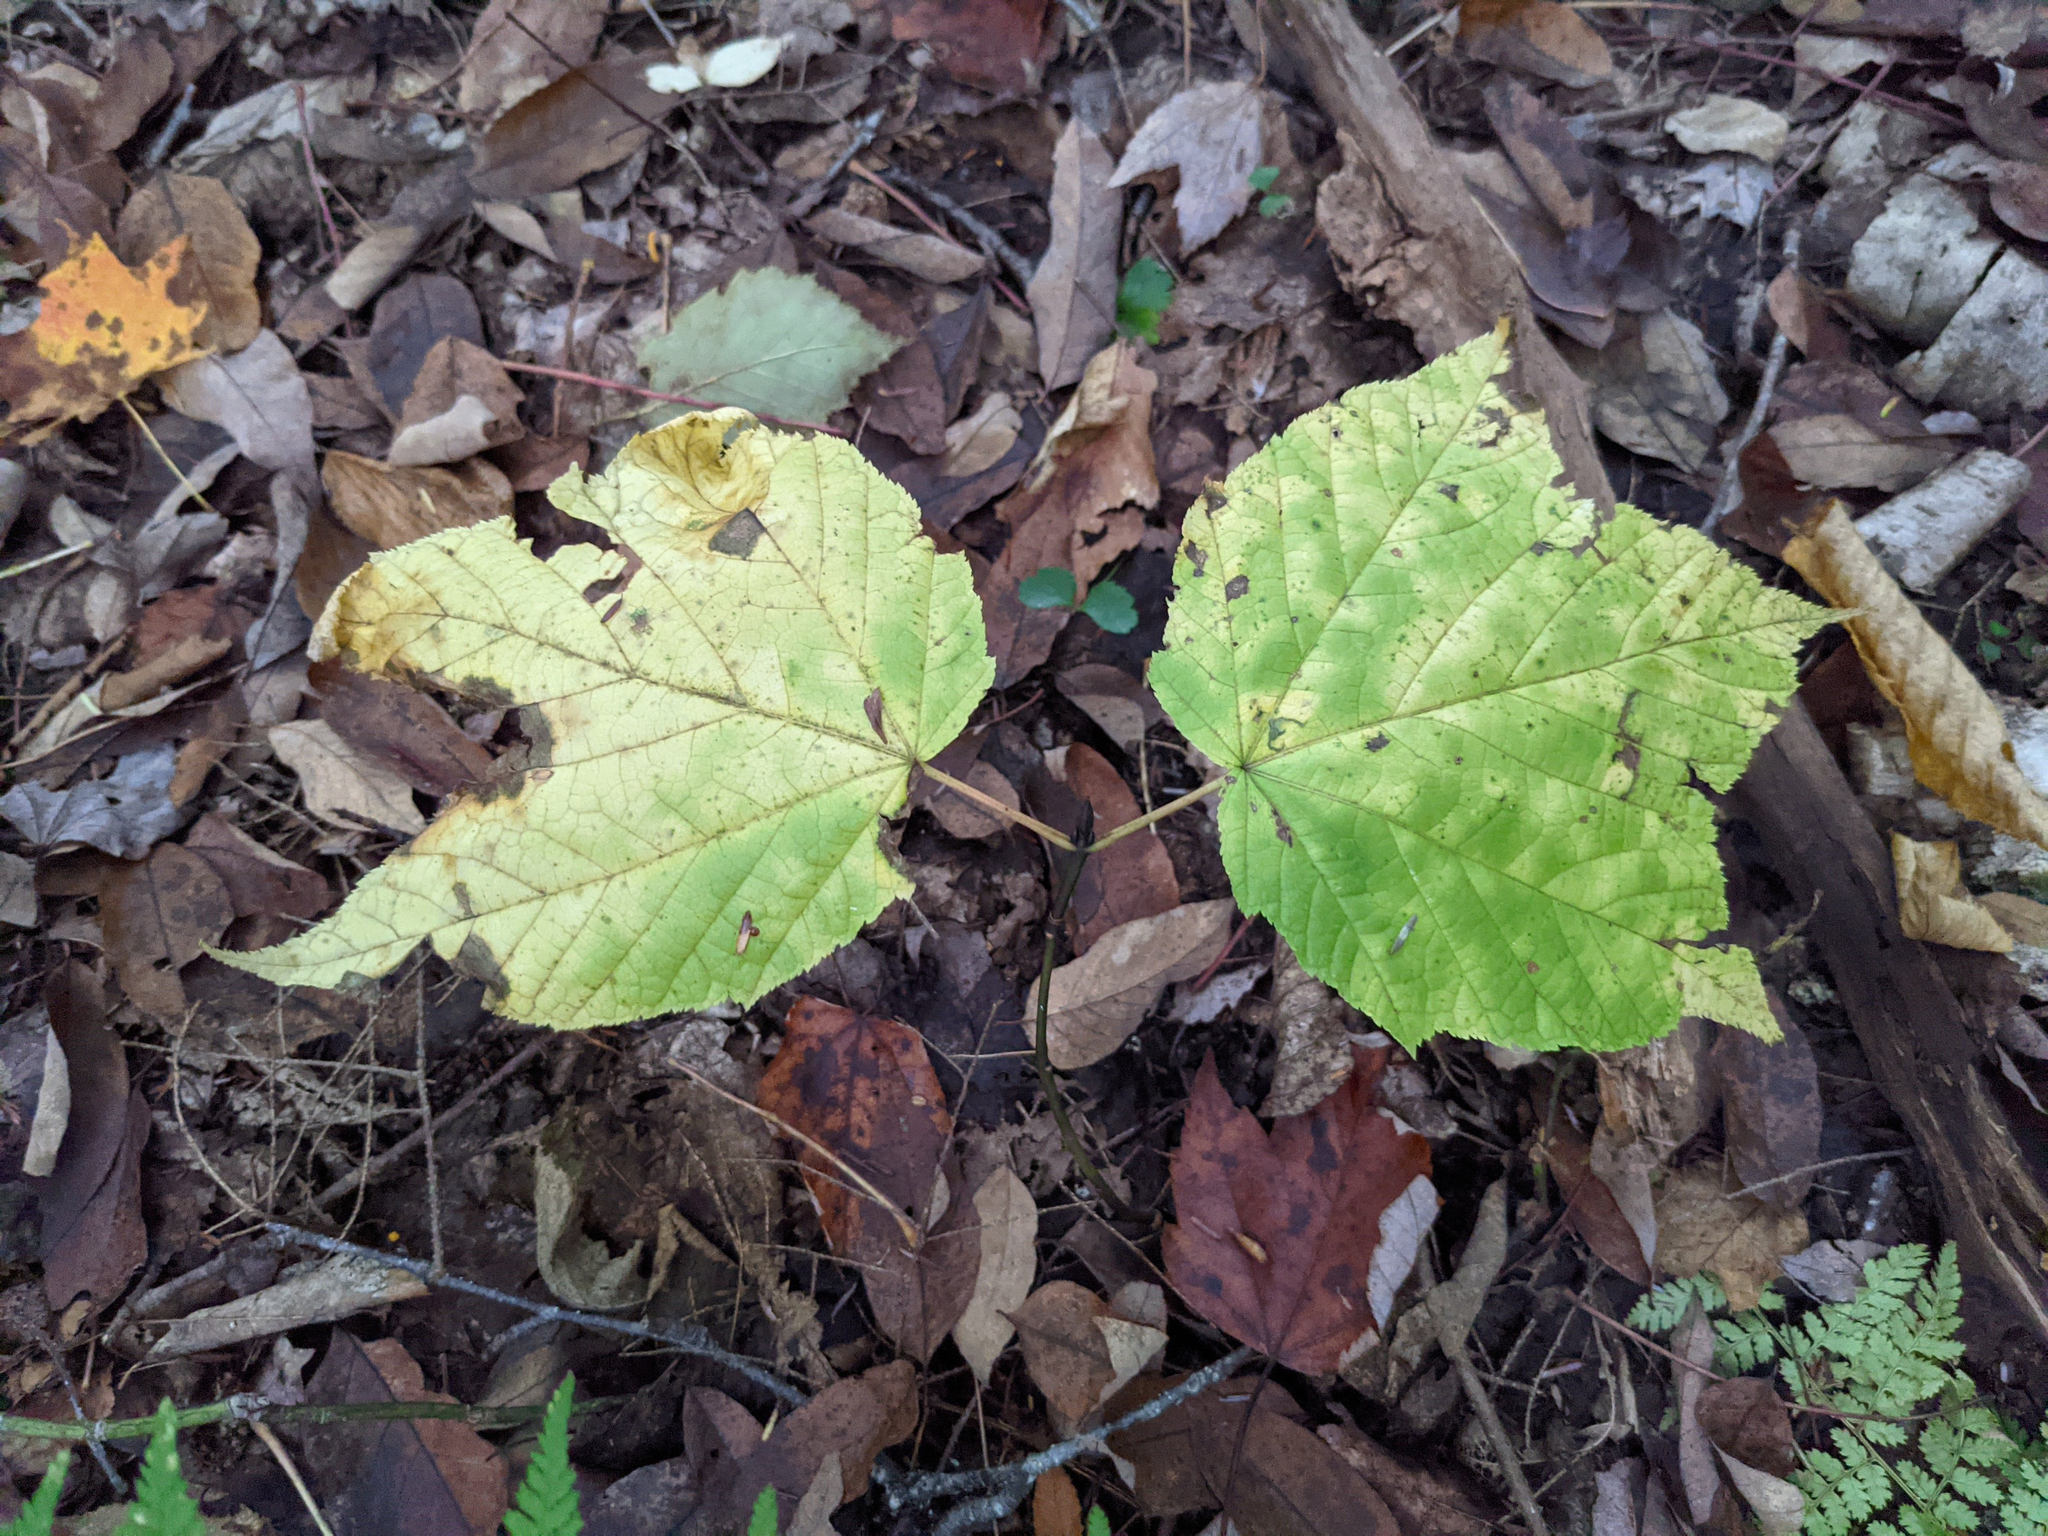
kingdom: Plantae
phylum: Tracheophyta
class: Magnoliopsida
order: Sapindales
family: Sapindaceae
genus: Acer
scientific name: Acer pensylvanicum
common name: Moosewood
